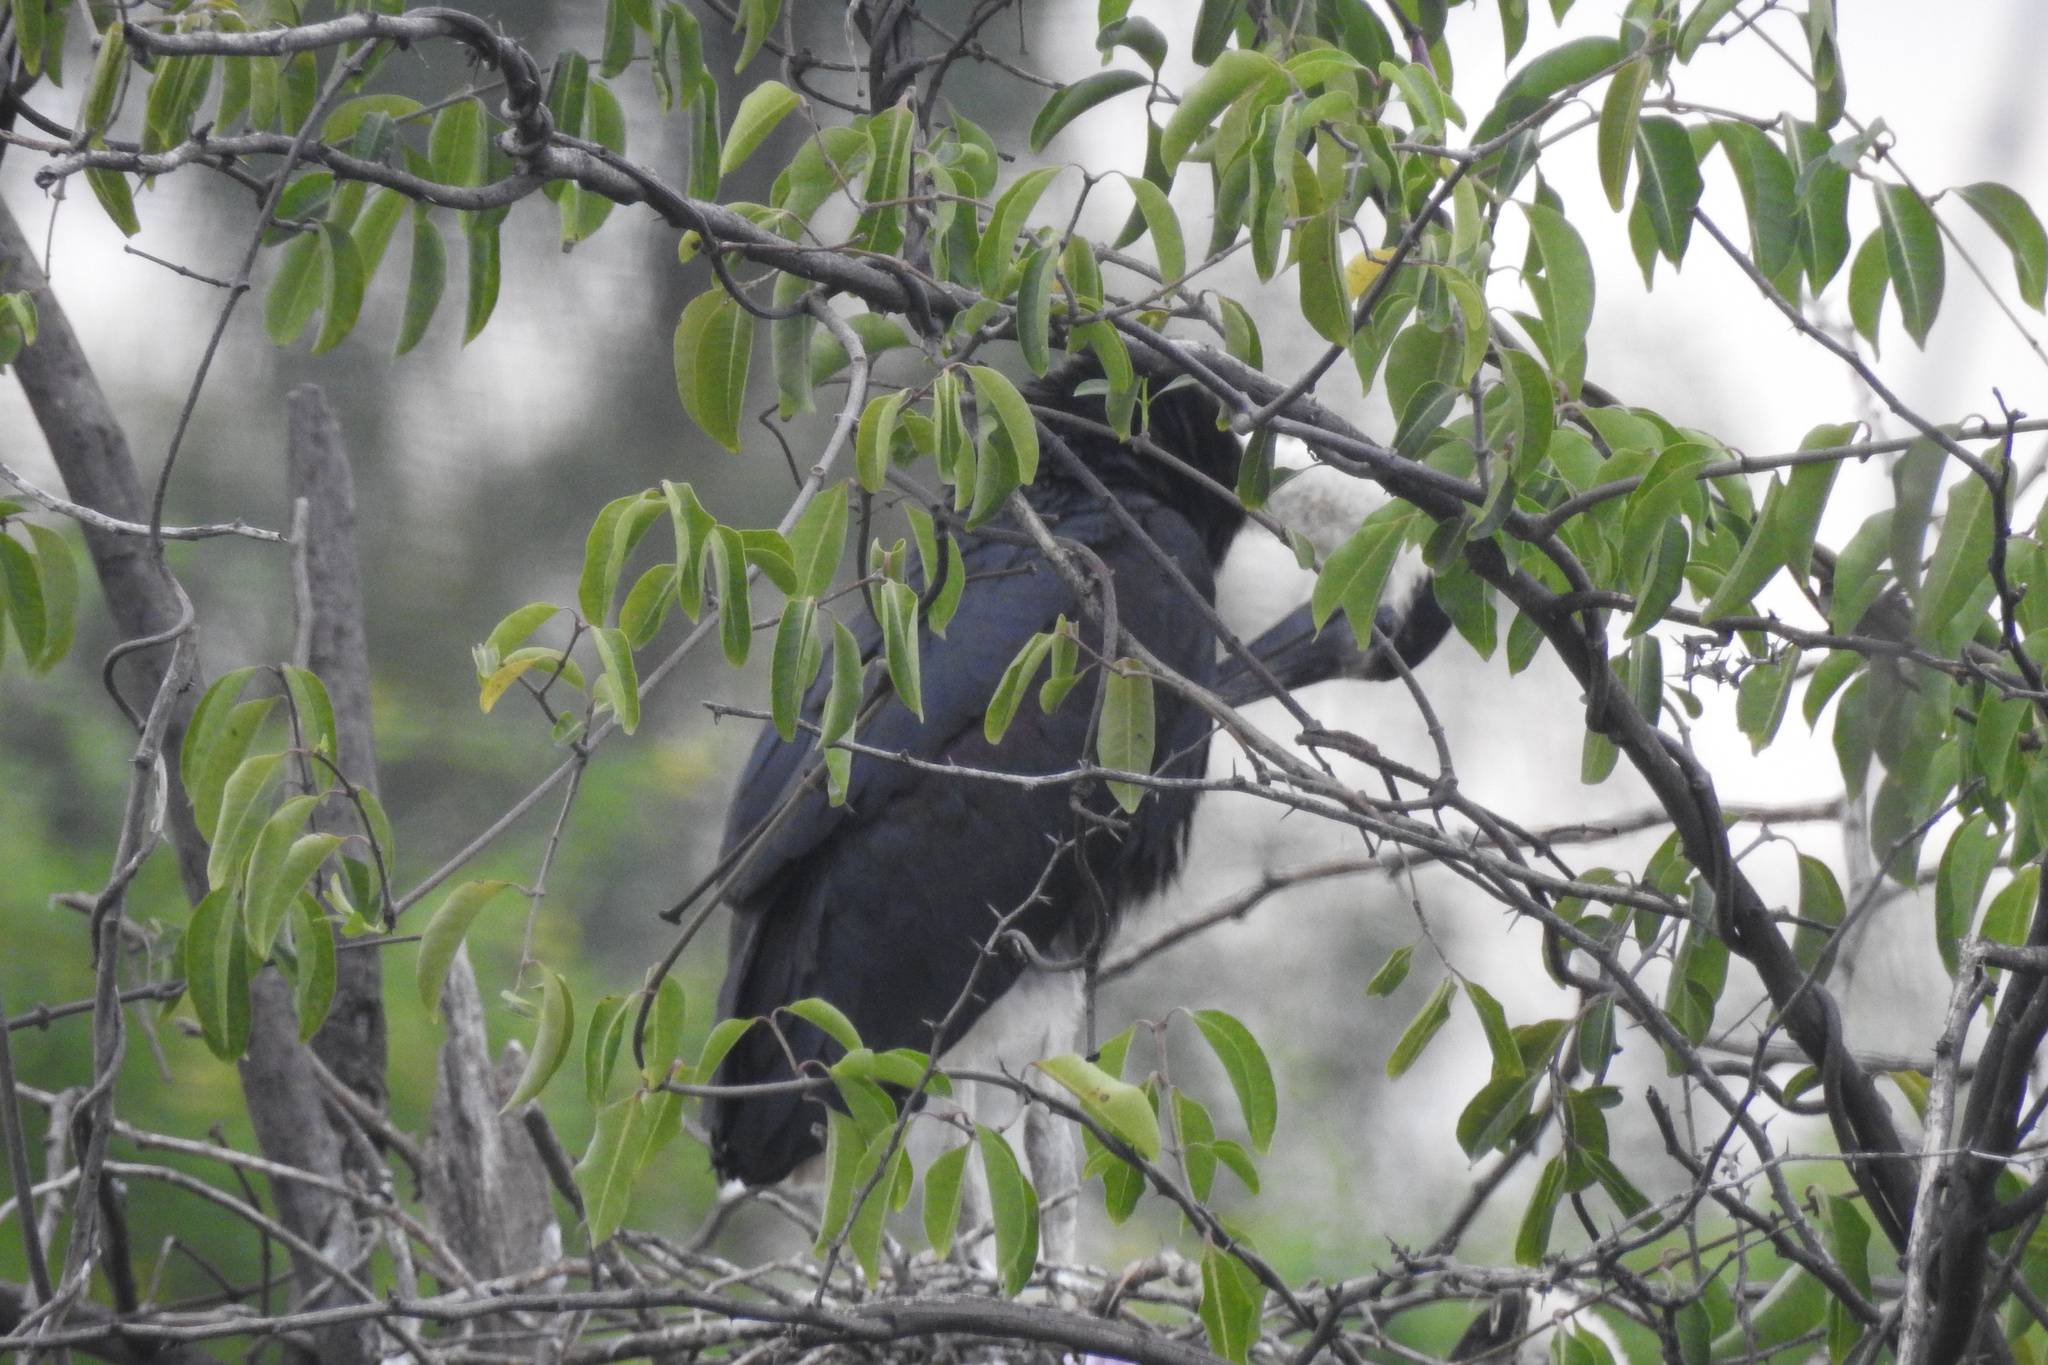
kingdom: Animalia
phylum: Chordata
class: Aves
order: Ciconiiformes
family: Ciconiidae
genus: Ciconia
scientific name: Ciconia episcopus
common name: Woolly-necked stork
